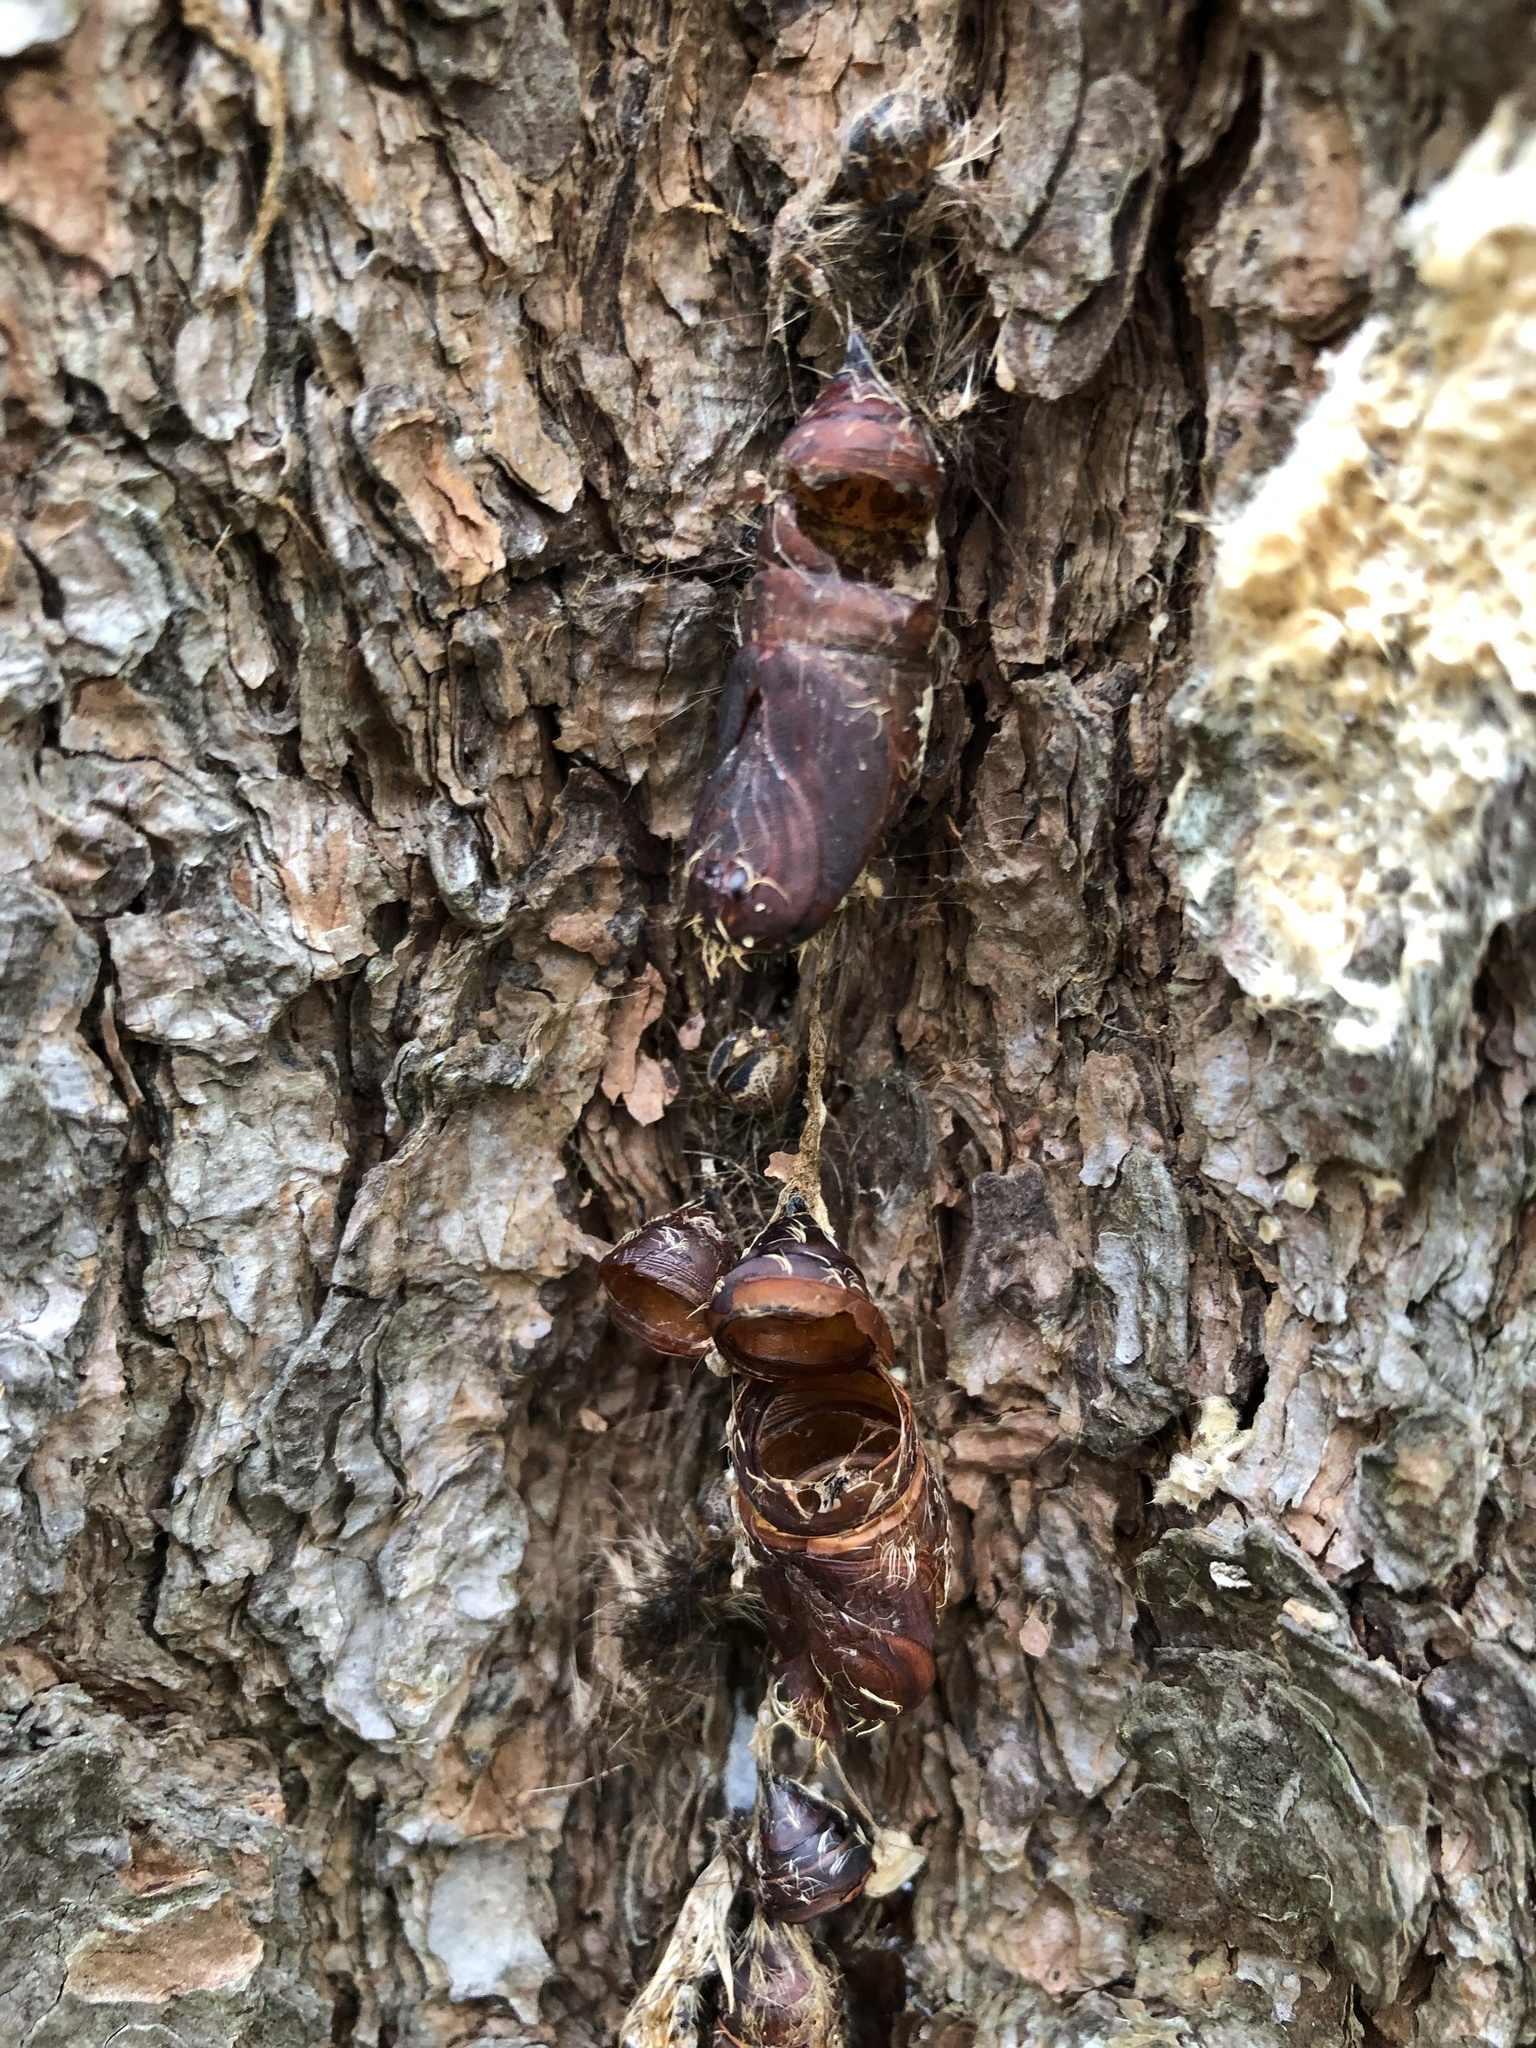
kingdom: Animalia
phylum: Arthropoda
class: Insecta
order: Lepidoptera
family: Erebidae
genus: Lymantria
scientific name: Lymantria dispar
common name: Gypsy moth
